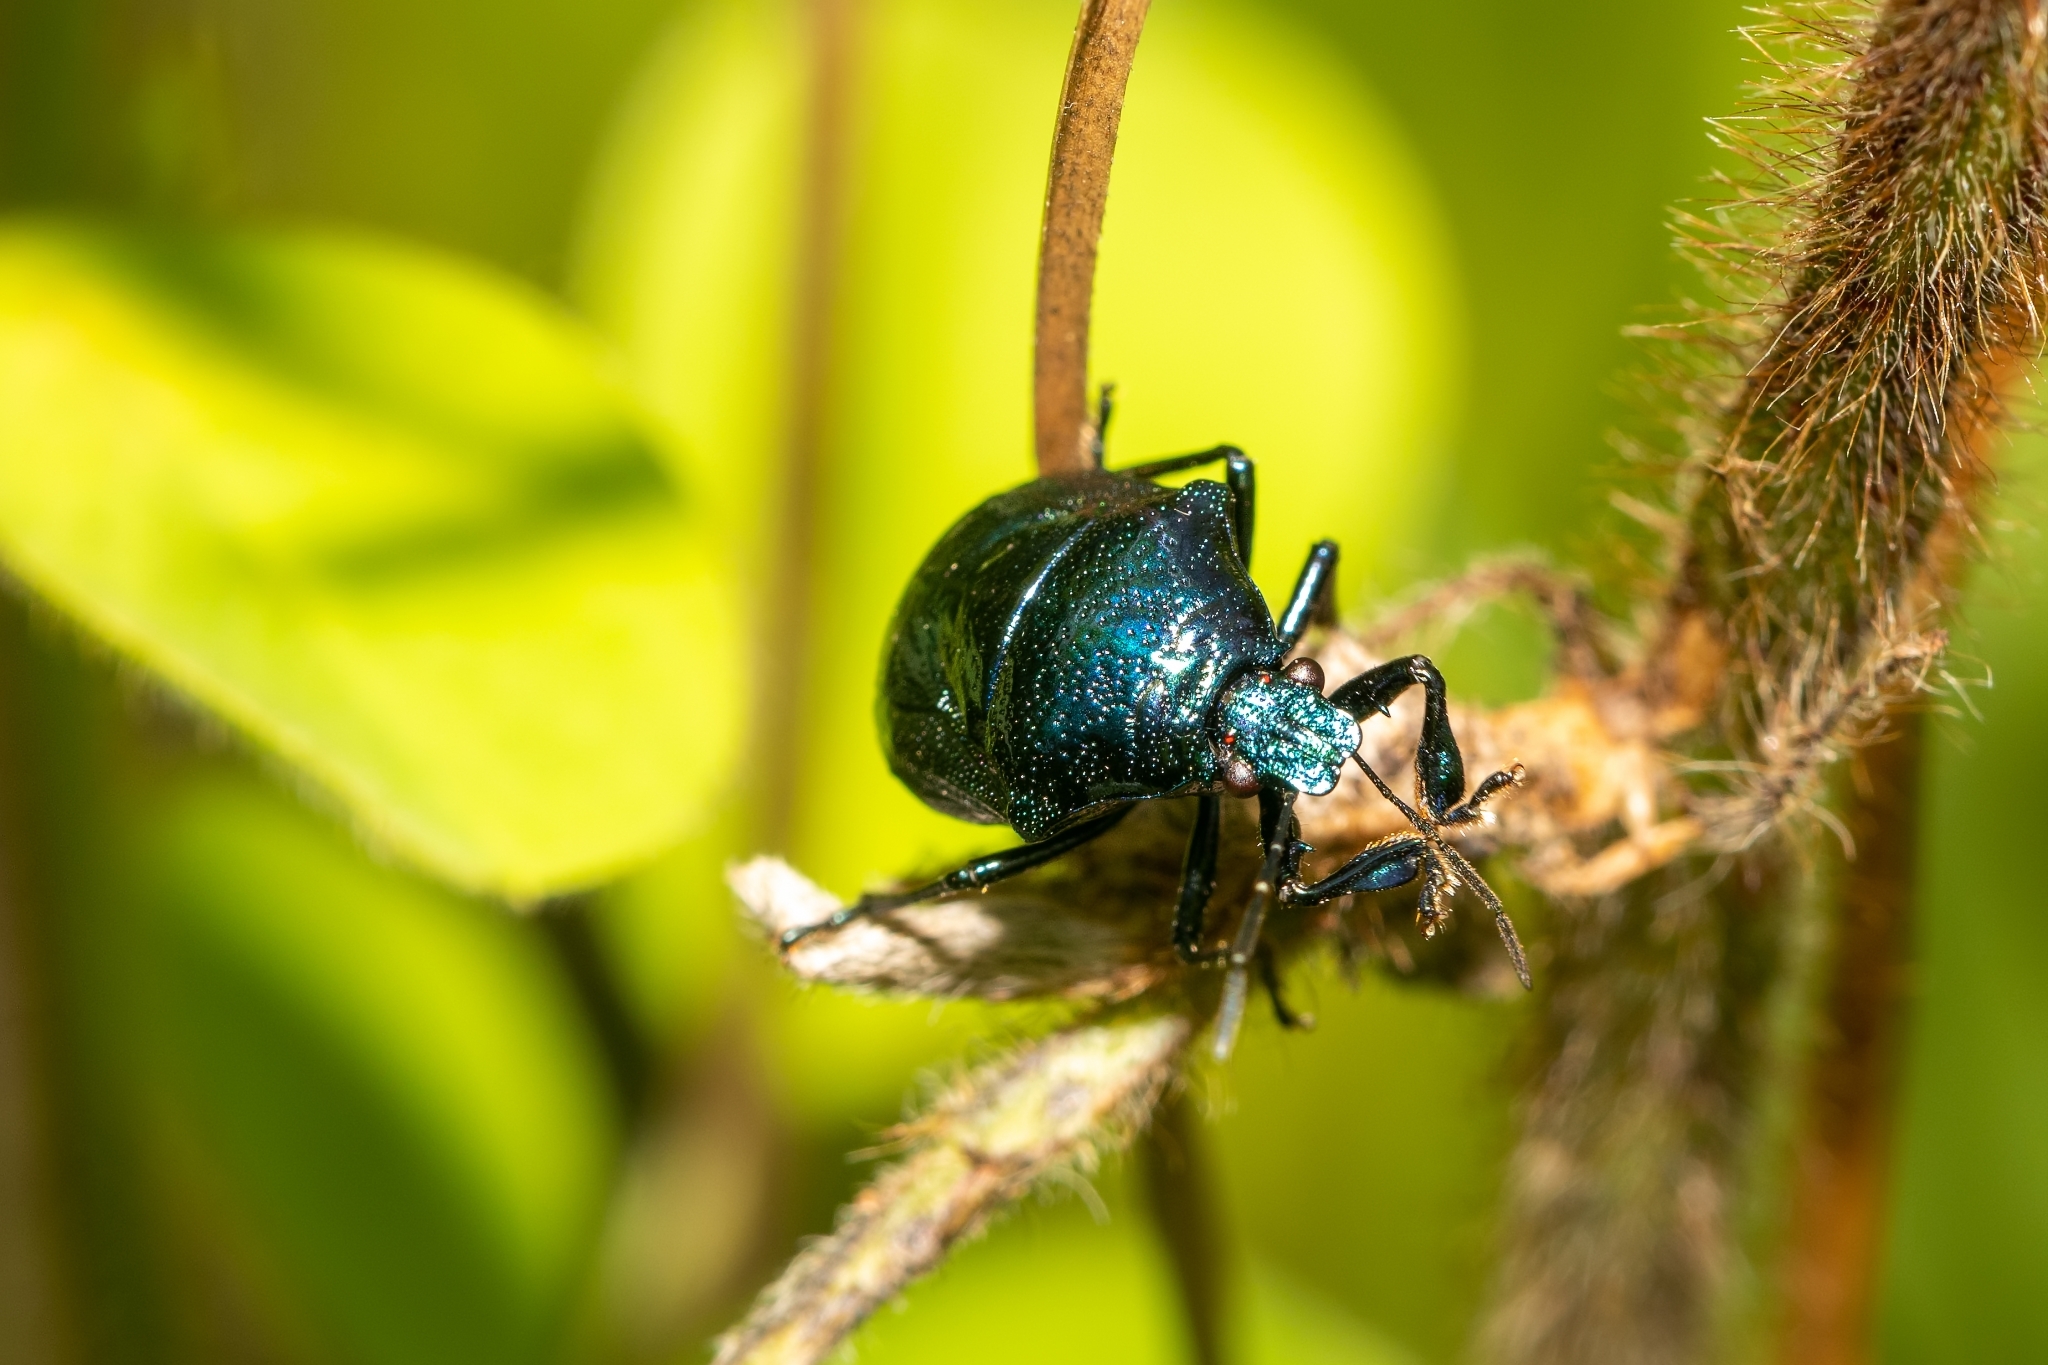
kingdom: Animalia
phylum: Arthropoda
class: Insecta
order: Hemiptera
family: Pentatomidae
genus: Stiretrus
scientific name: Stiretrus anchorago
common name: Anchor stink bug
